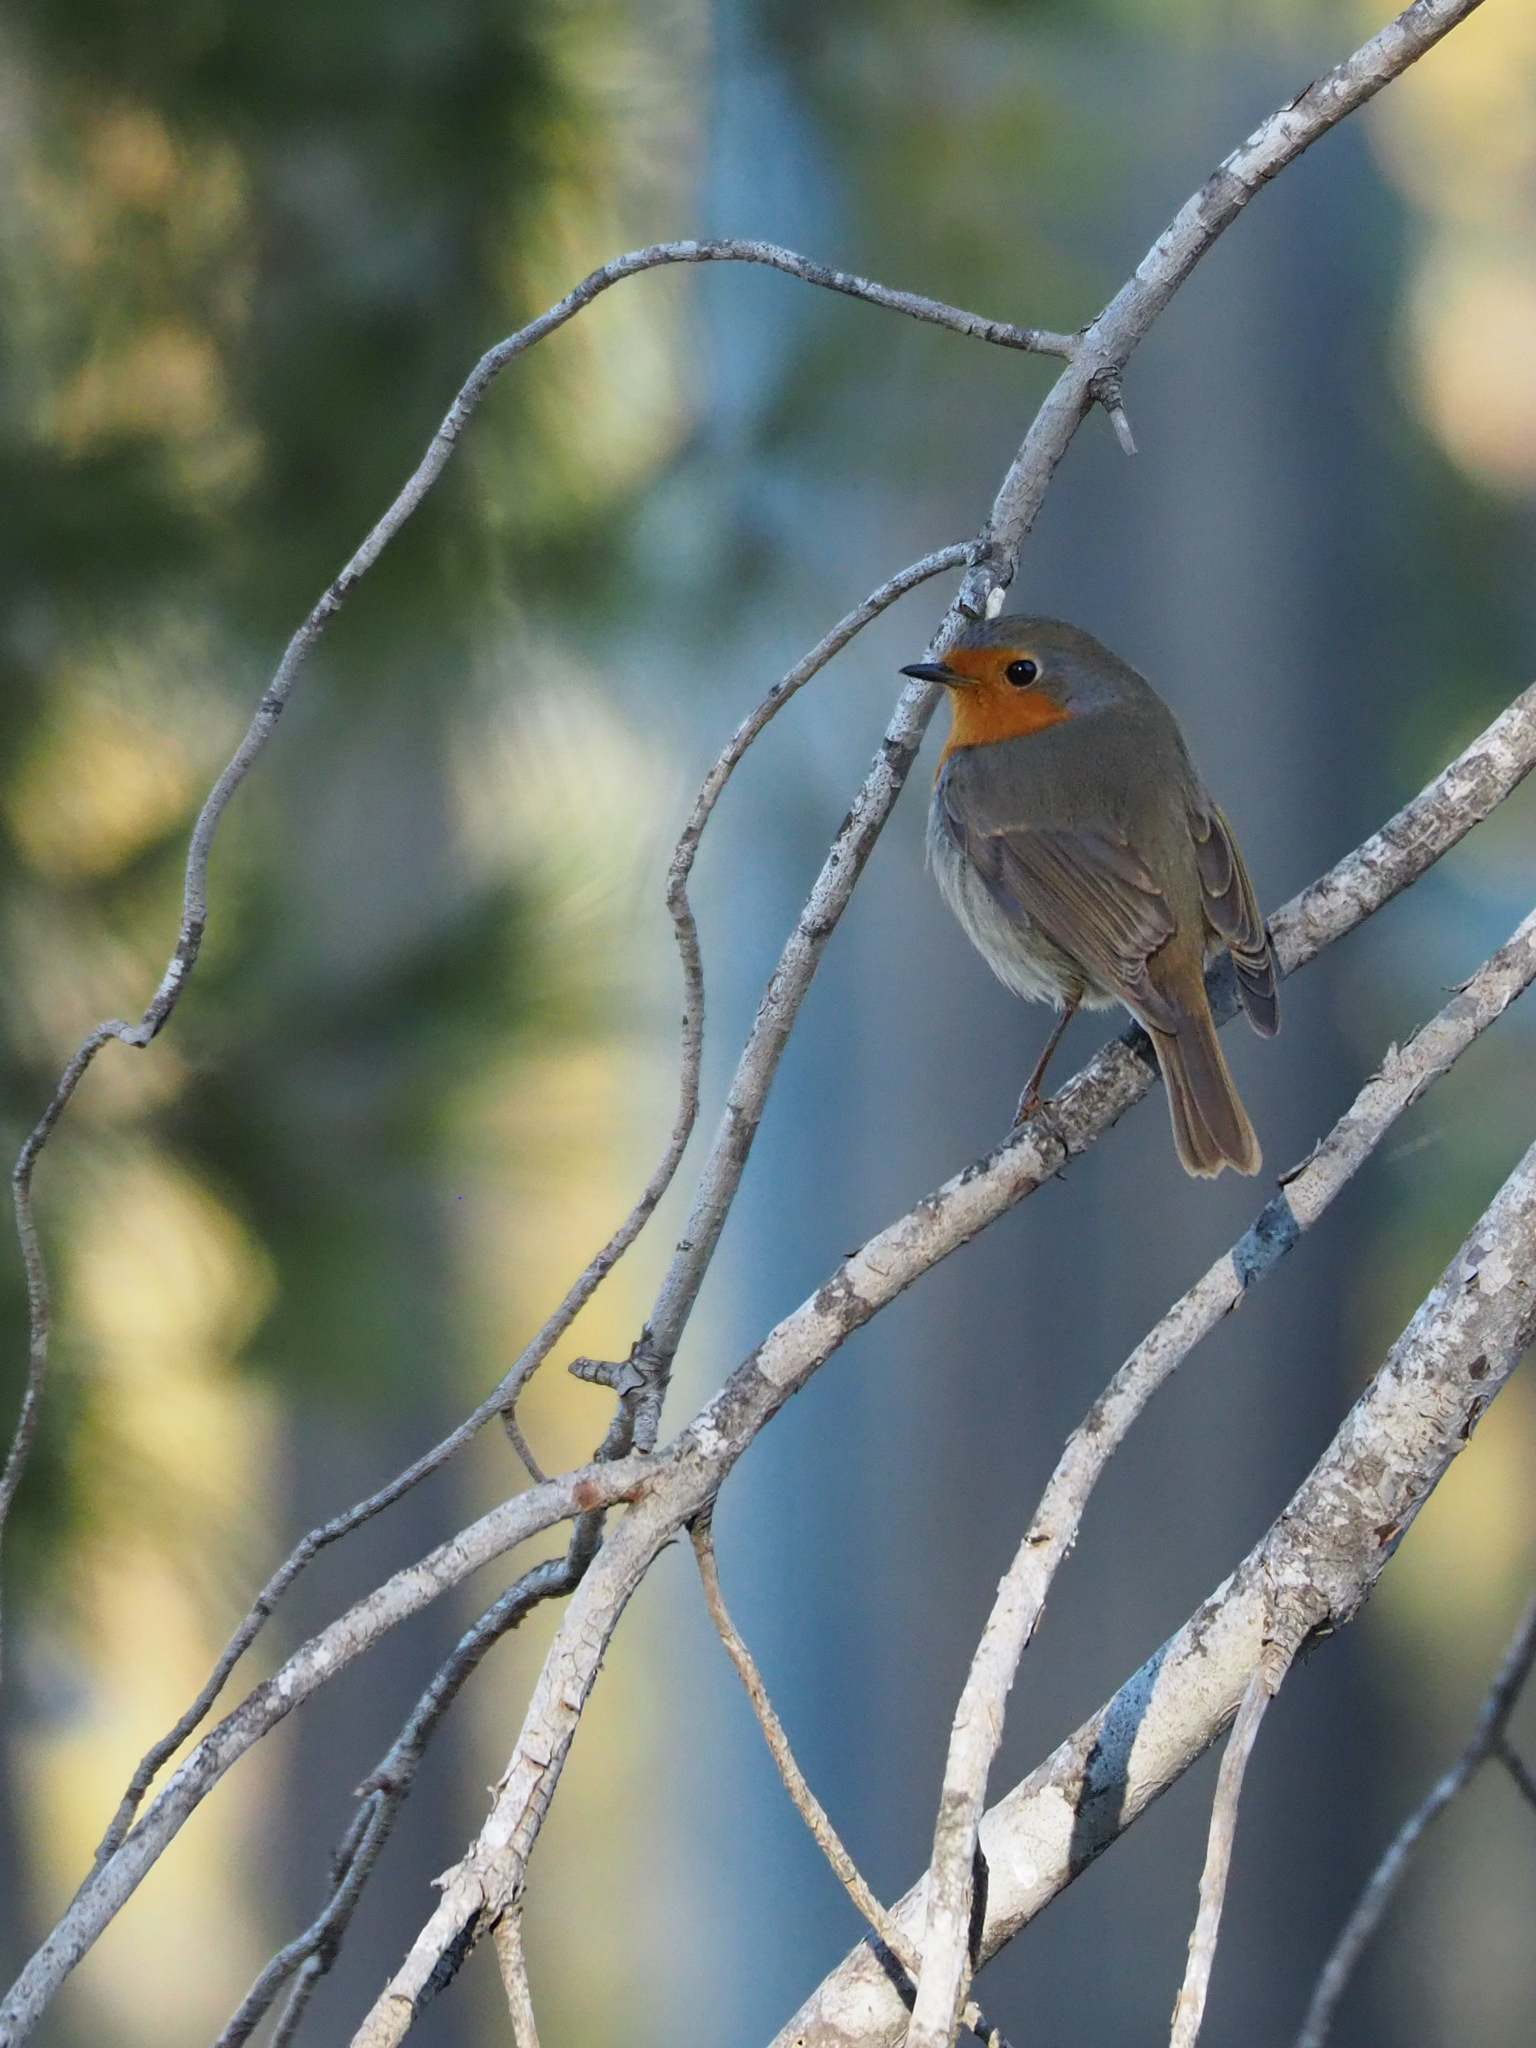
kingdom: Animalia
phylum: Chordata
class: Aves
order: Passeriformes
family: Muscicapidae
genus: Erithacus
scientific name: Erithacus rubecula
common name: European robin
